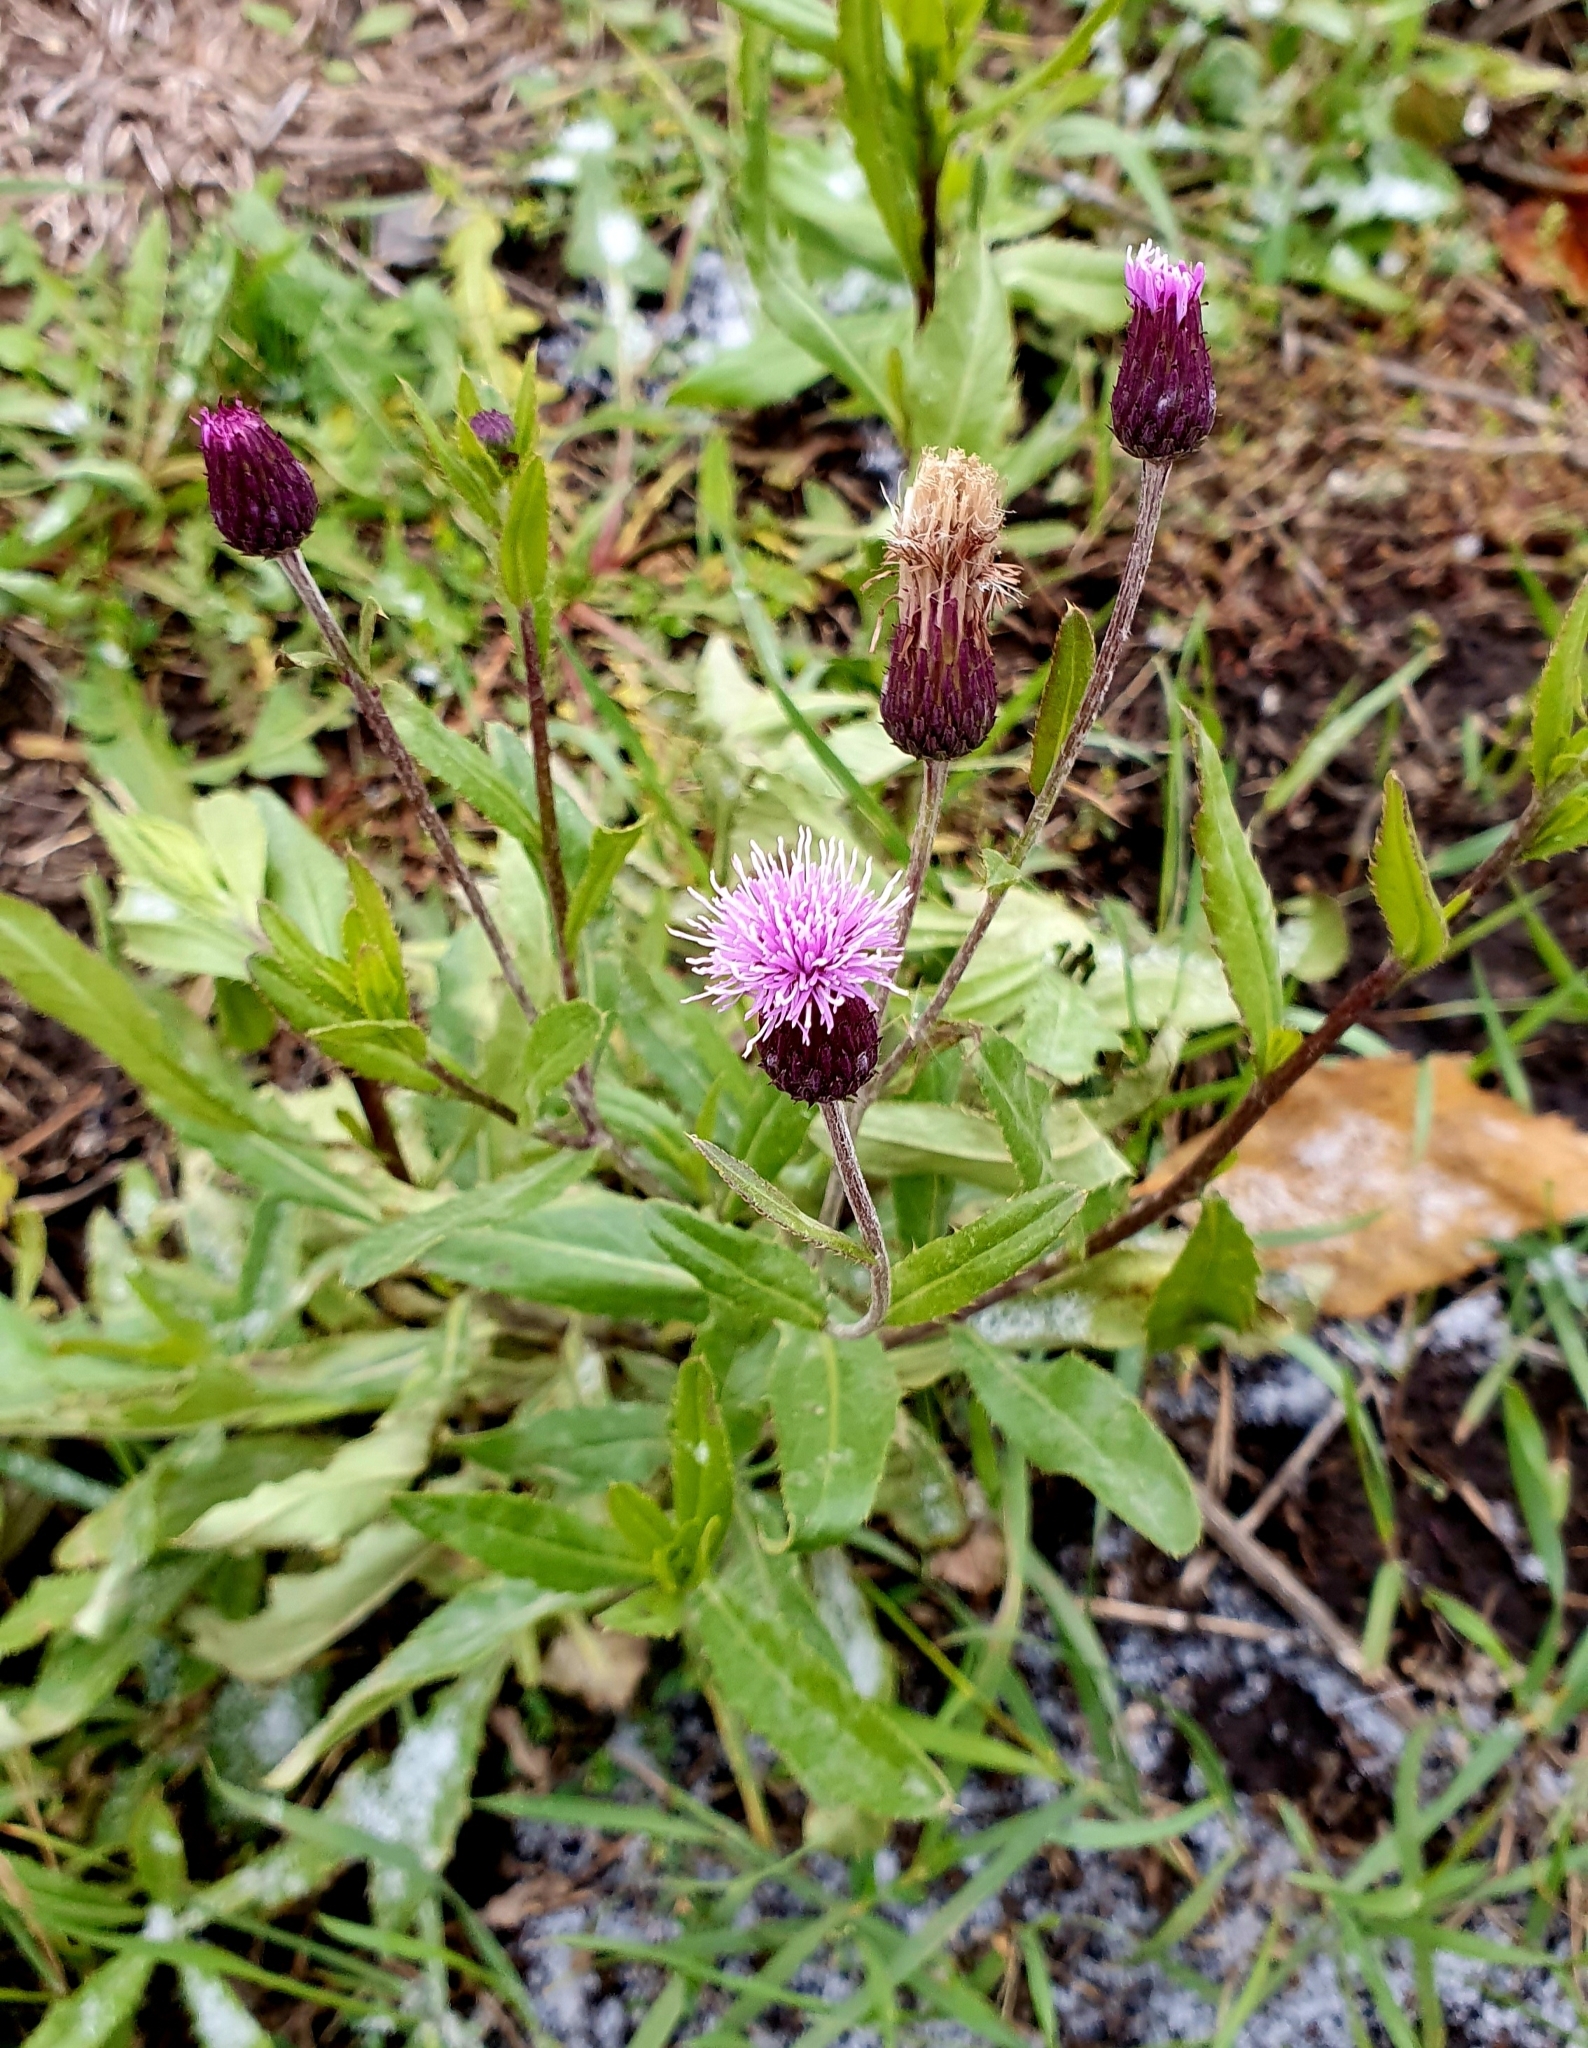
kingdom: Plantae
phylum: Tracheophyta
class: Magnoliopsida
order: Asterales
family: Asteraceae
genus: Cirsium
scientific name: Cirsium arvense
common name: Creeping thistle
